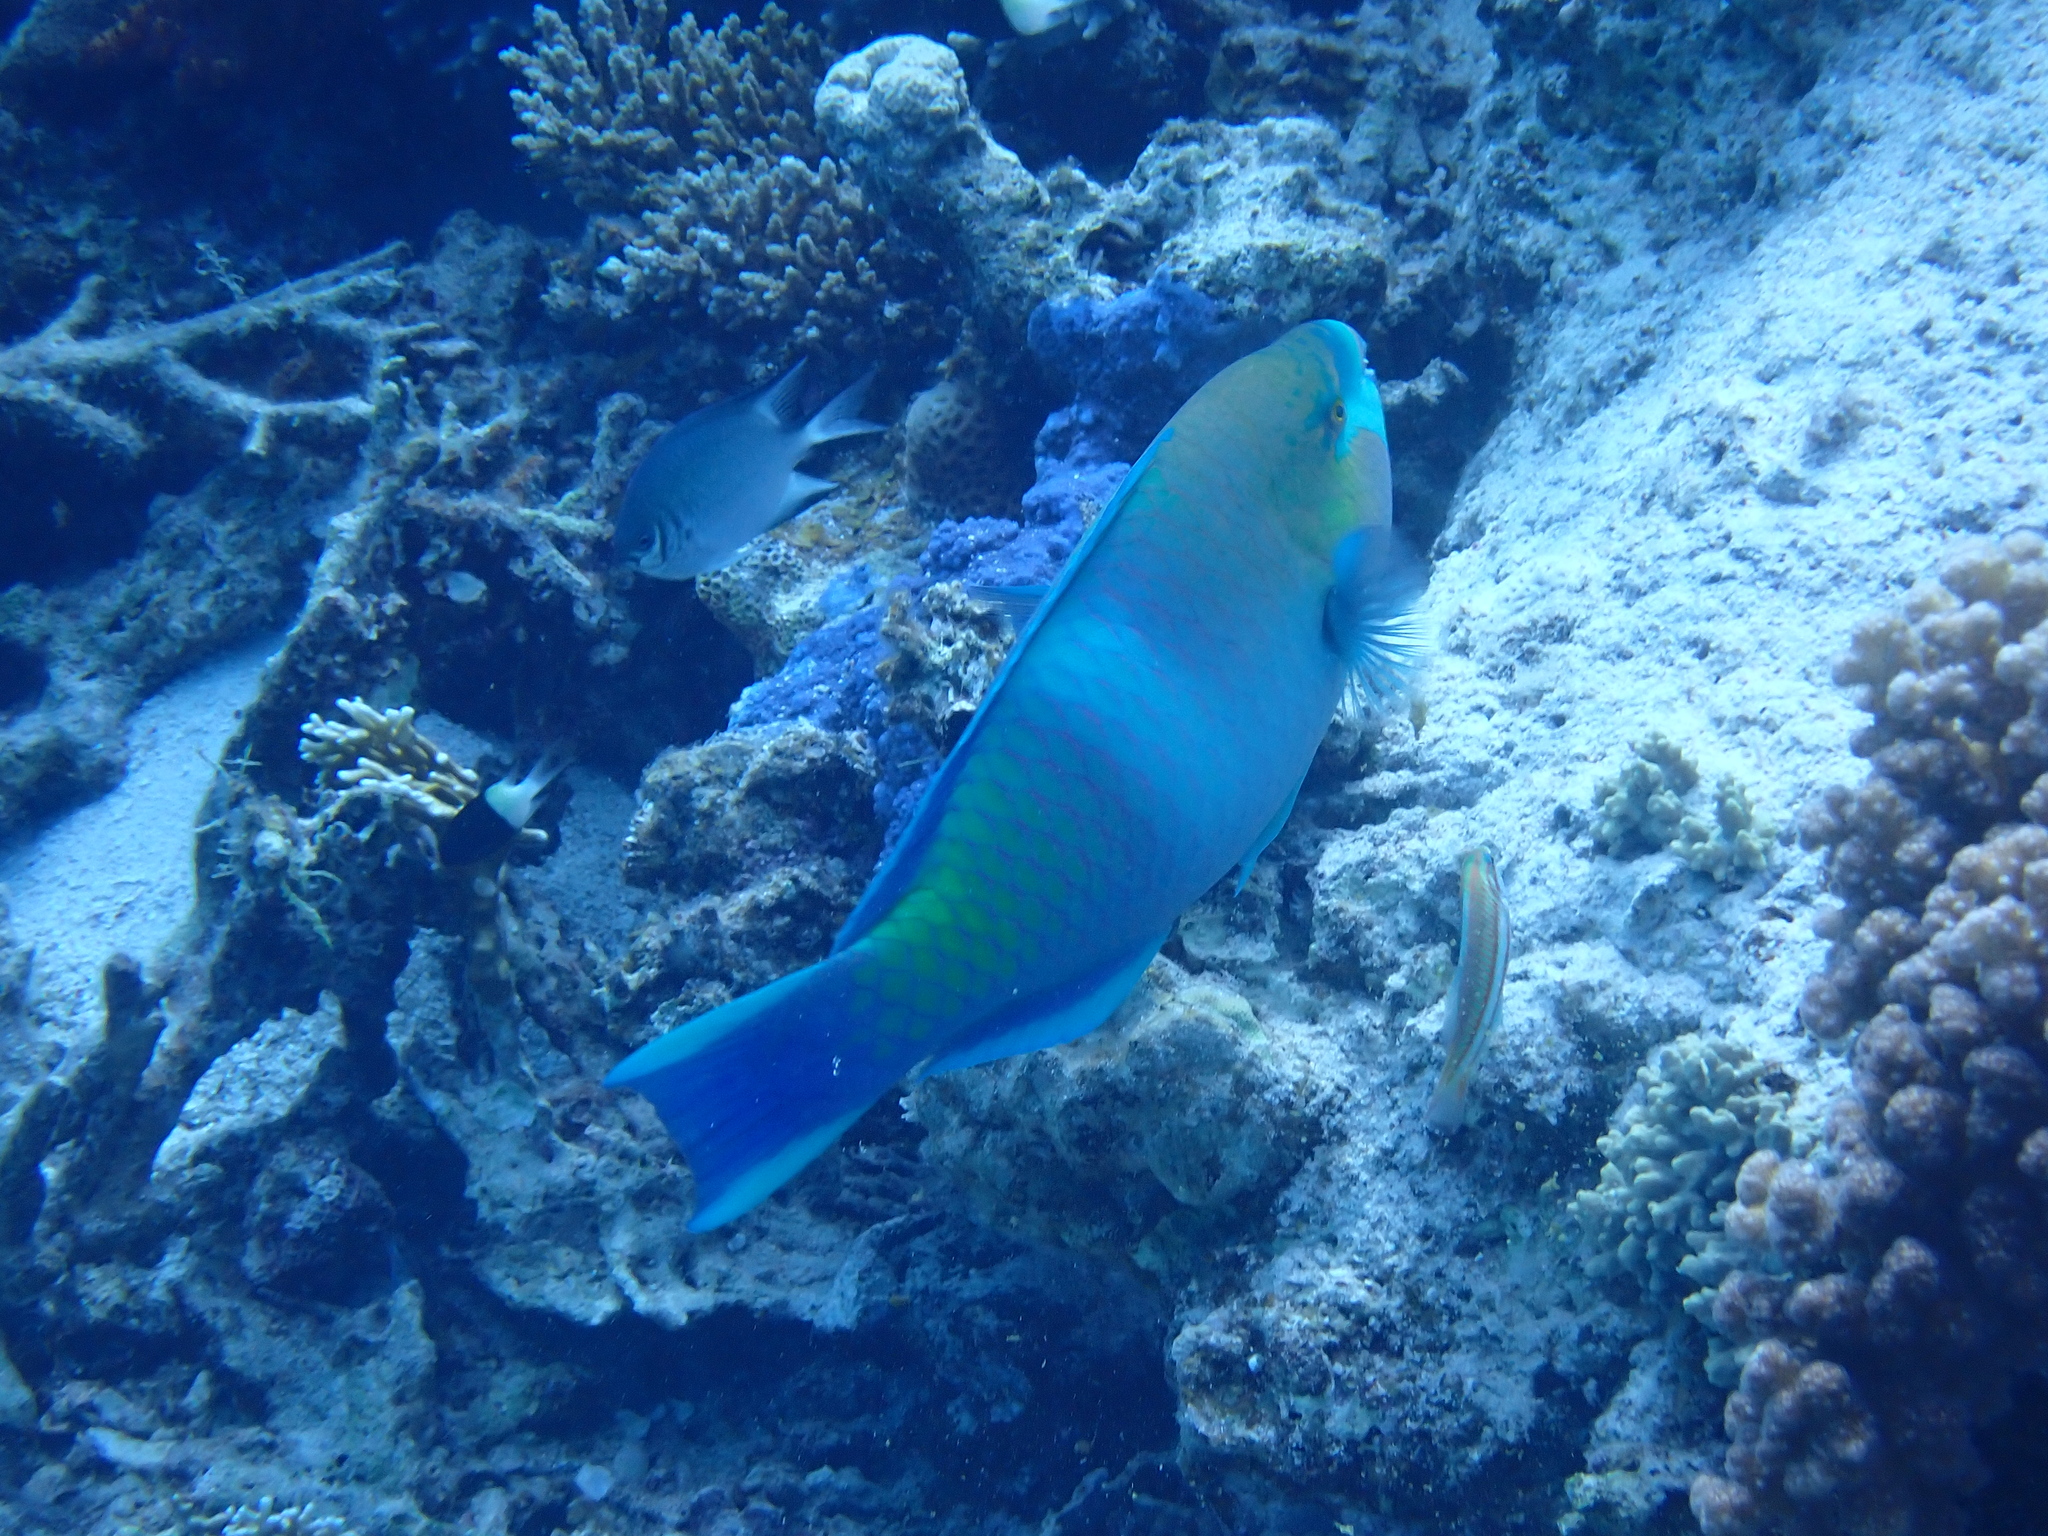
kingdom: Animalia
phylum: Chordata
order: Perciformes
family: Scaridae
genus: Scarus
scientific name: Scarus ferrugineus
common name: Rusty parrotfish
